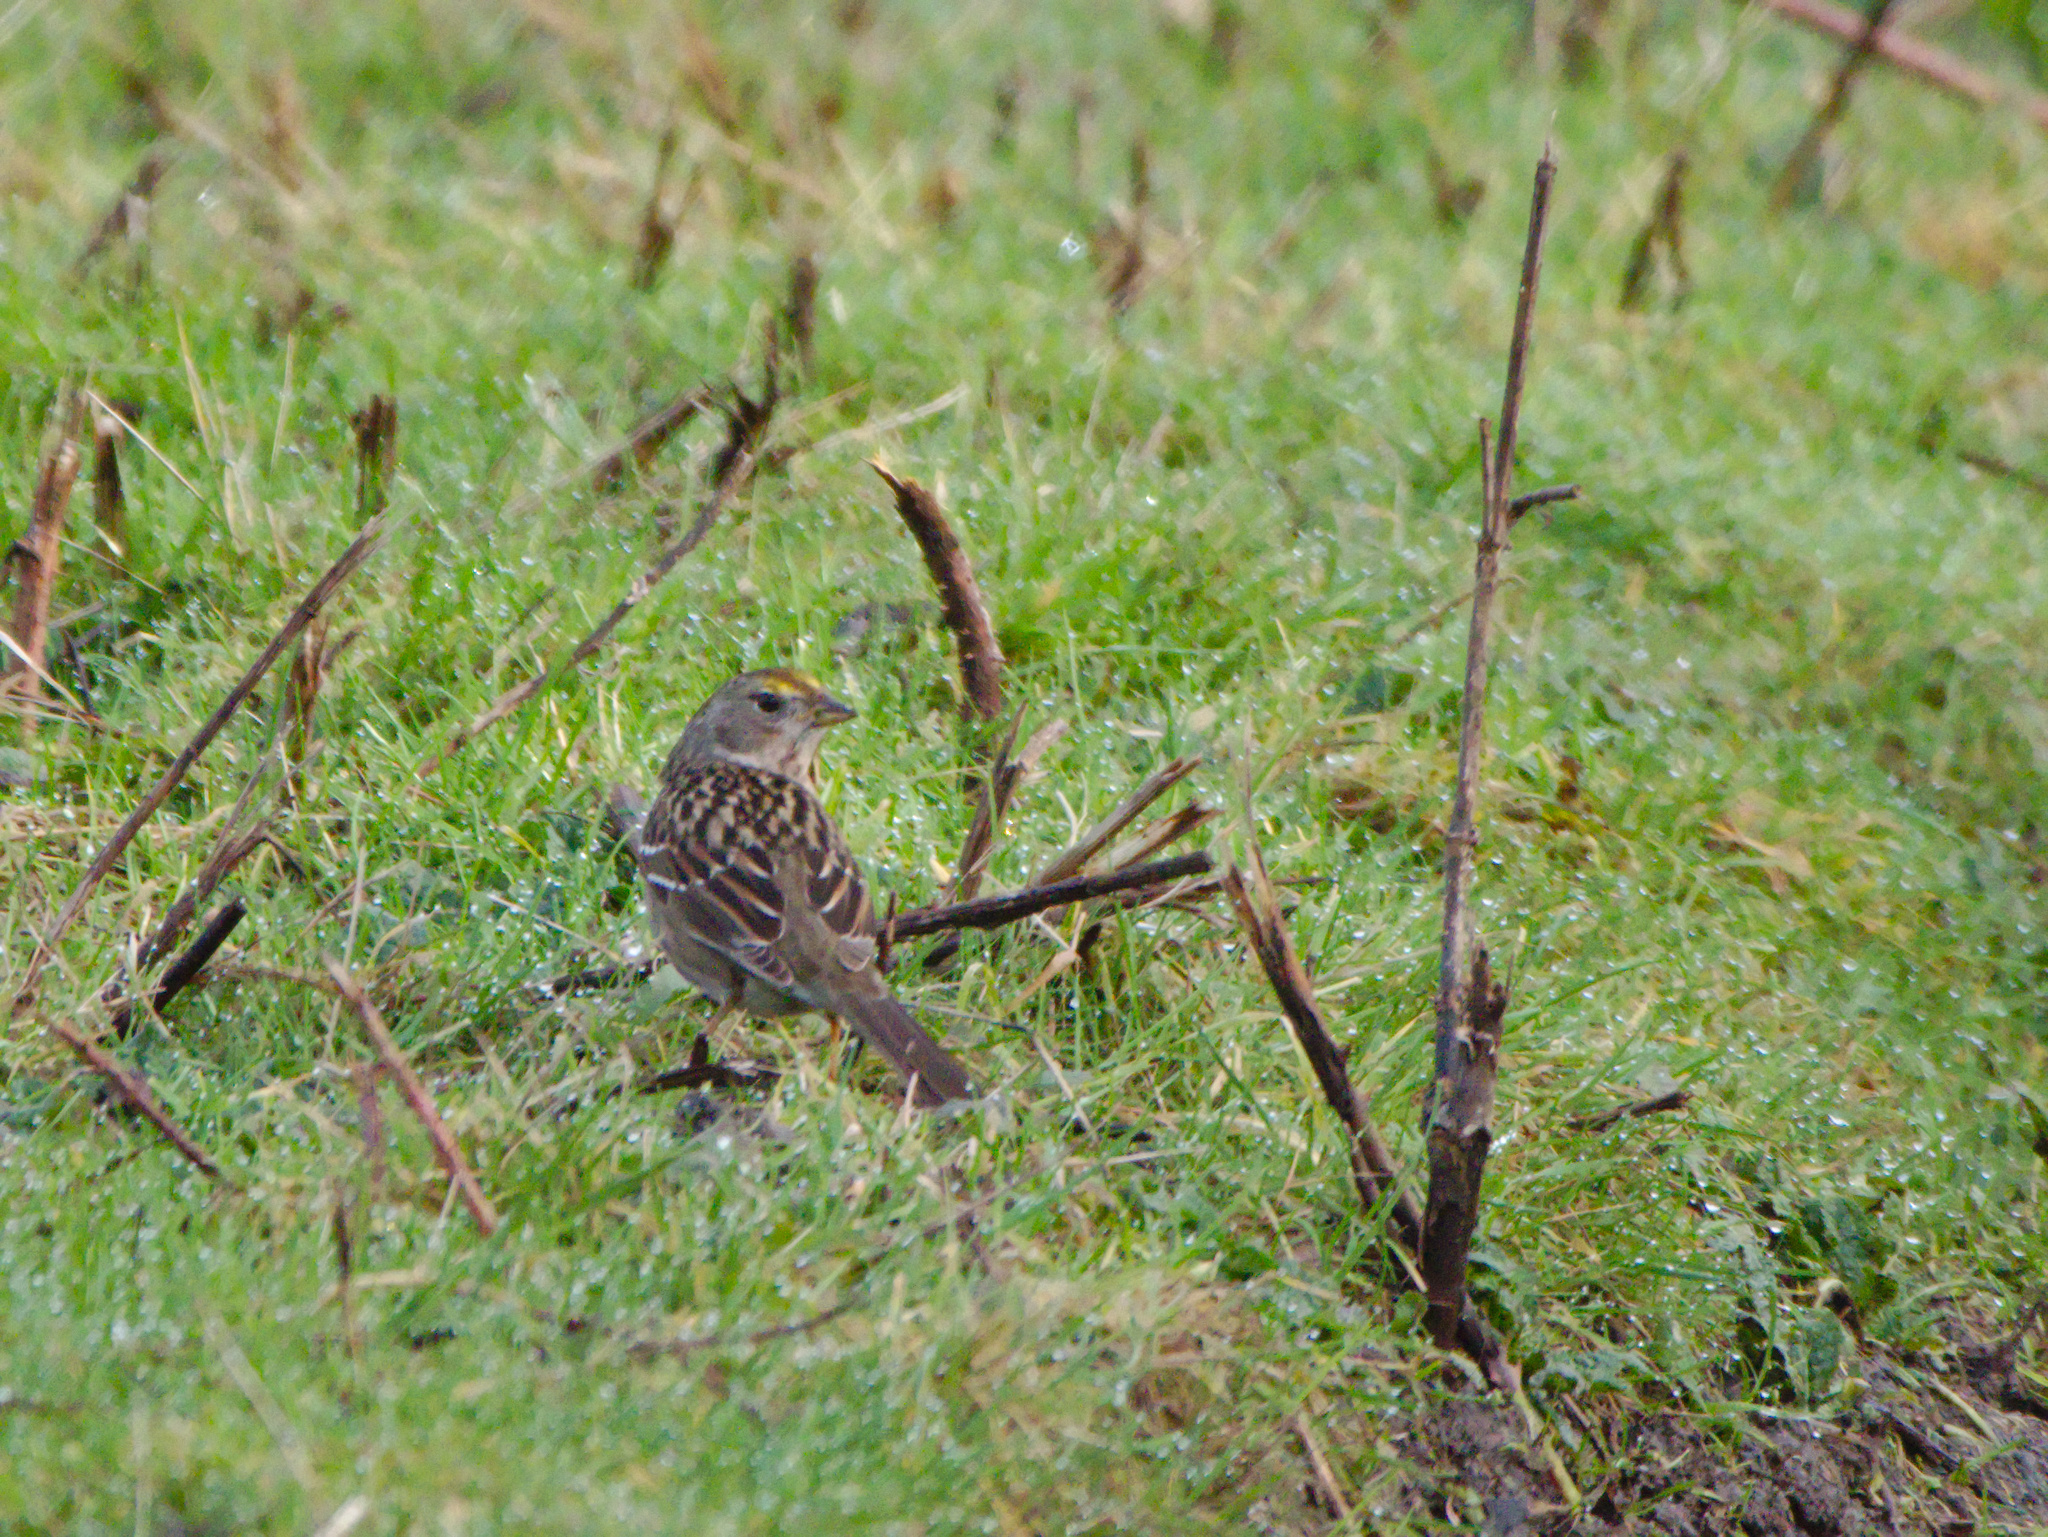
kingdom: Animalia
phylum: Chordata
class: Aves
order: Passeriformes
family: Passerellidae
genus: Zonotrichia
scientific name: Zonotrichia atricapilla
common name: Golden-crowned sparrow
